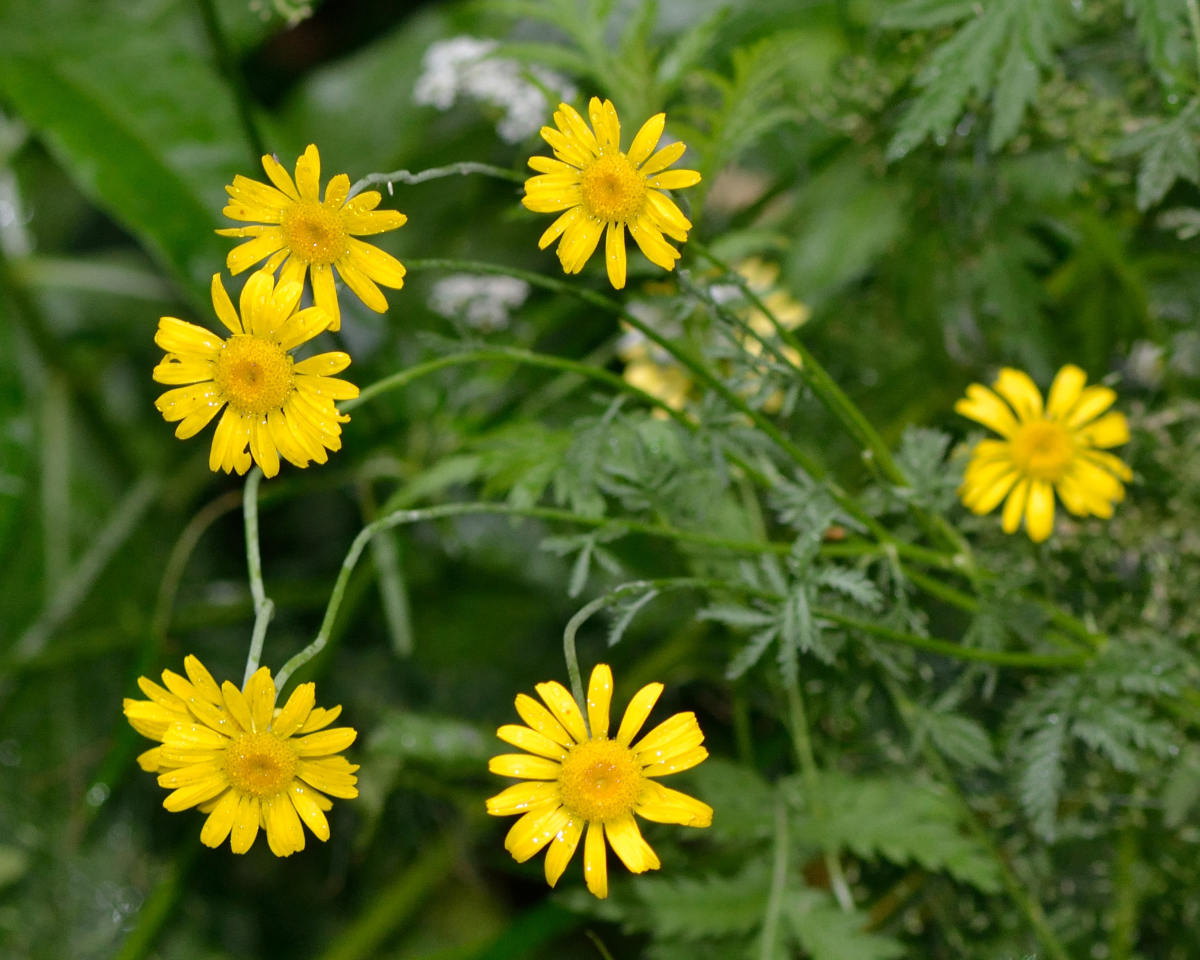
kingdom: Plantae
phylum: Tracheophyta
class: Magnoliopsida
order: Asterales
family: Asteraceae
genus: Cota
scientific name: Cota tinctoria
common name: Golden chamomile
